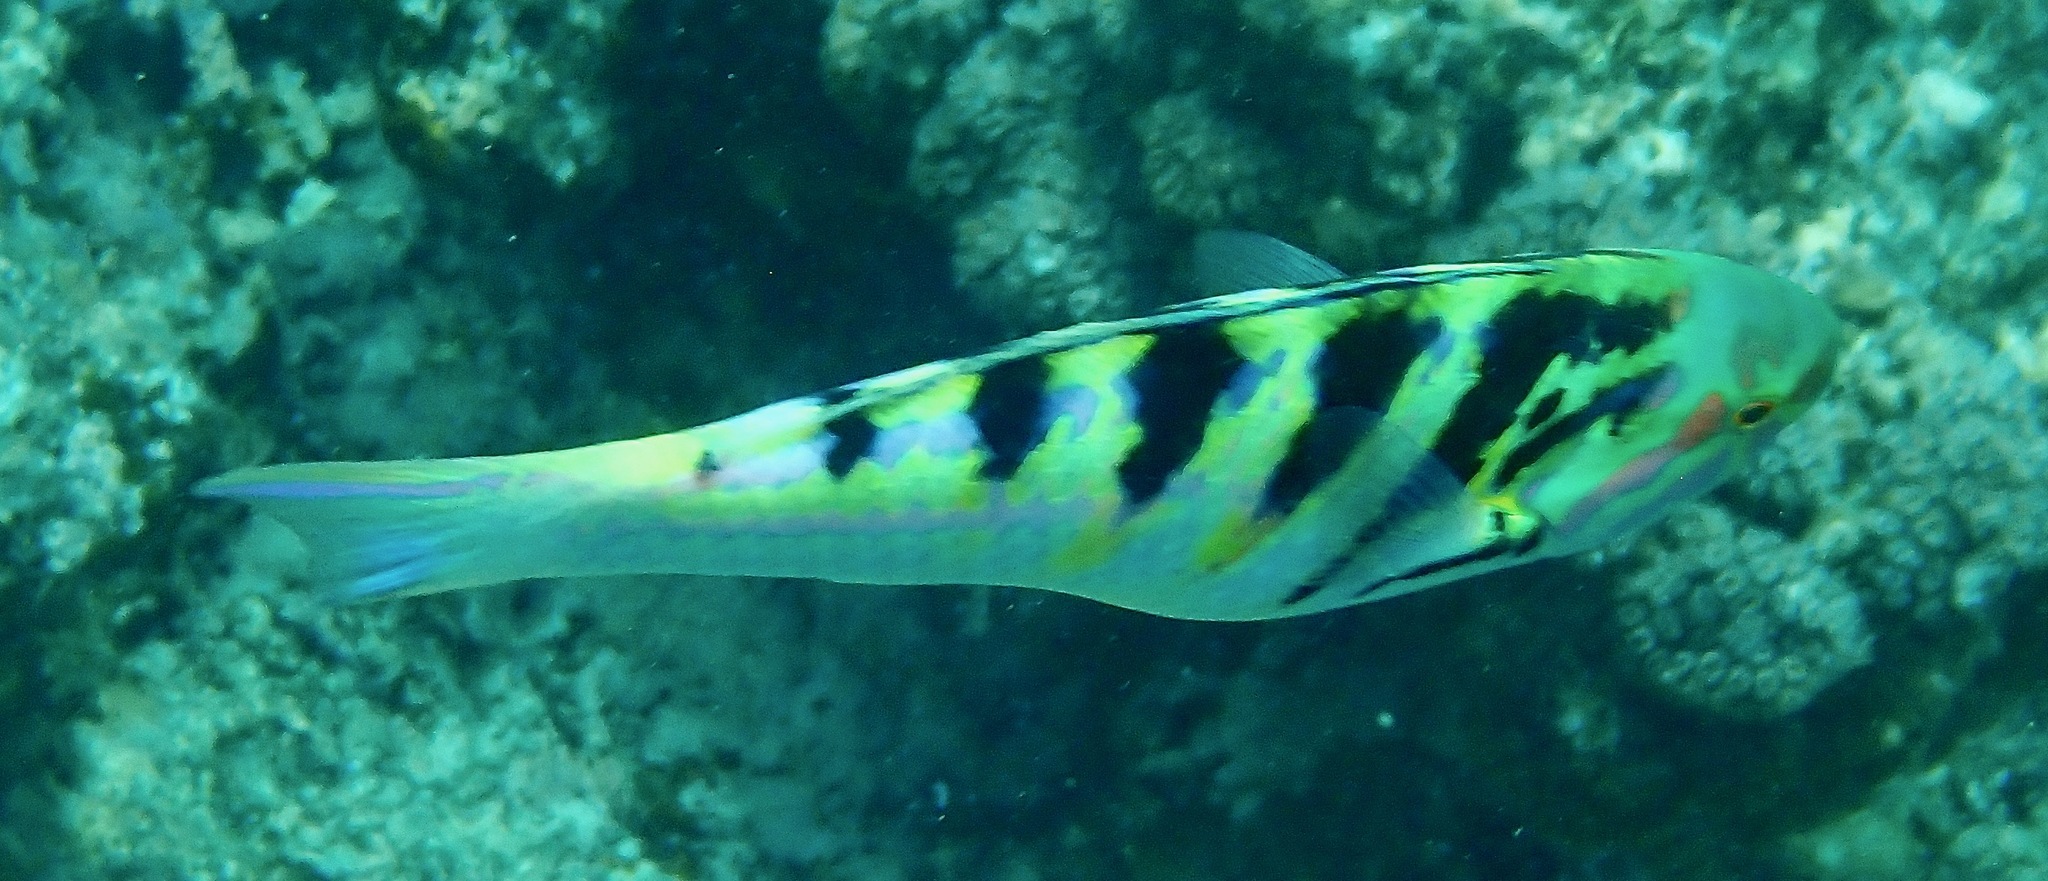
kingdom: Animalia
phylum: Chordata
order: Perciformes
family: Labridae
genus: Thalassoma
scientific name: Thalassoma hardwicke
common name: Sixbar wrasse
